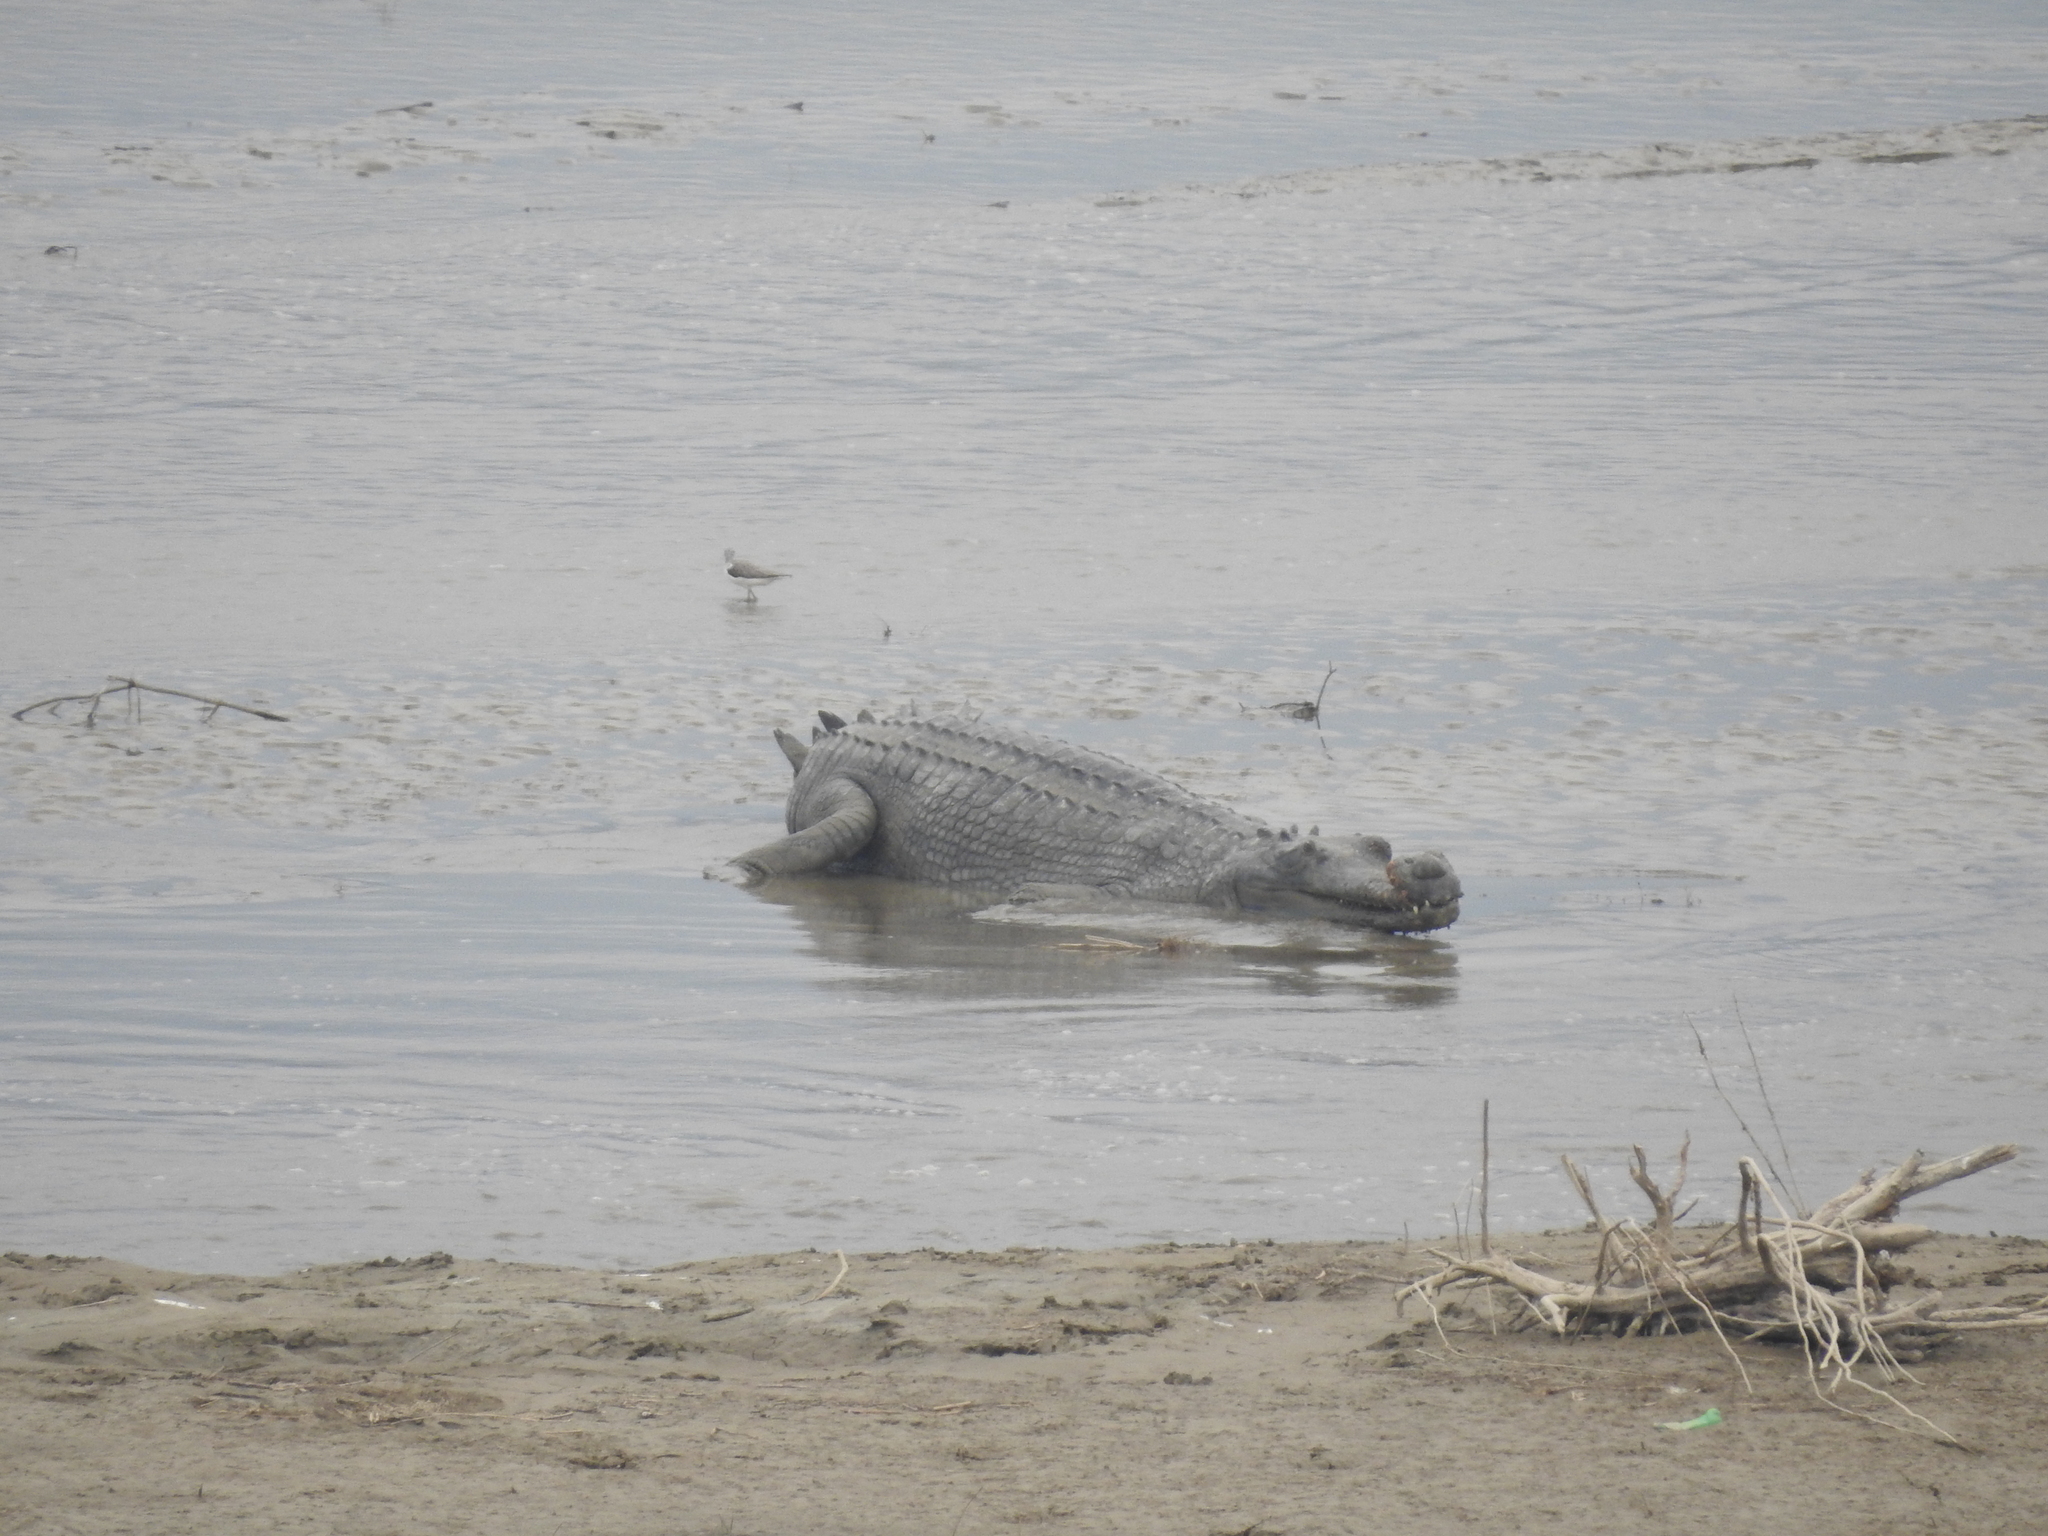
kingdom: Animalia
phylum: Chordata
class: Crocodylia
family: Gavialidae
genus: Gavialis
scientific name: Gavialis gangeticus
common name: Gharial
